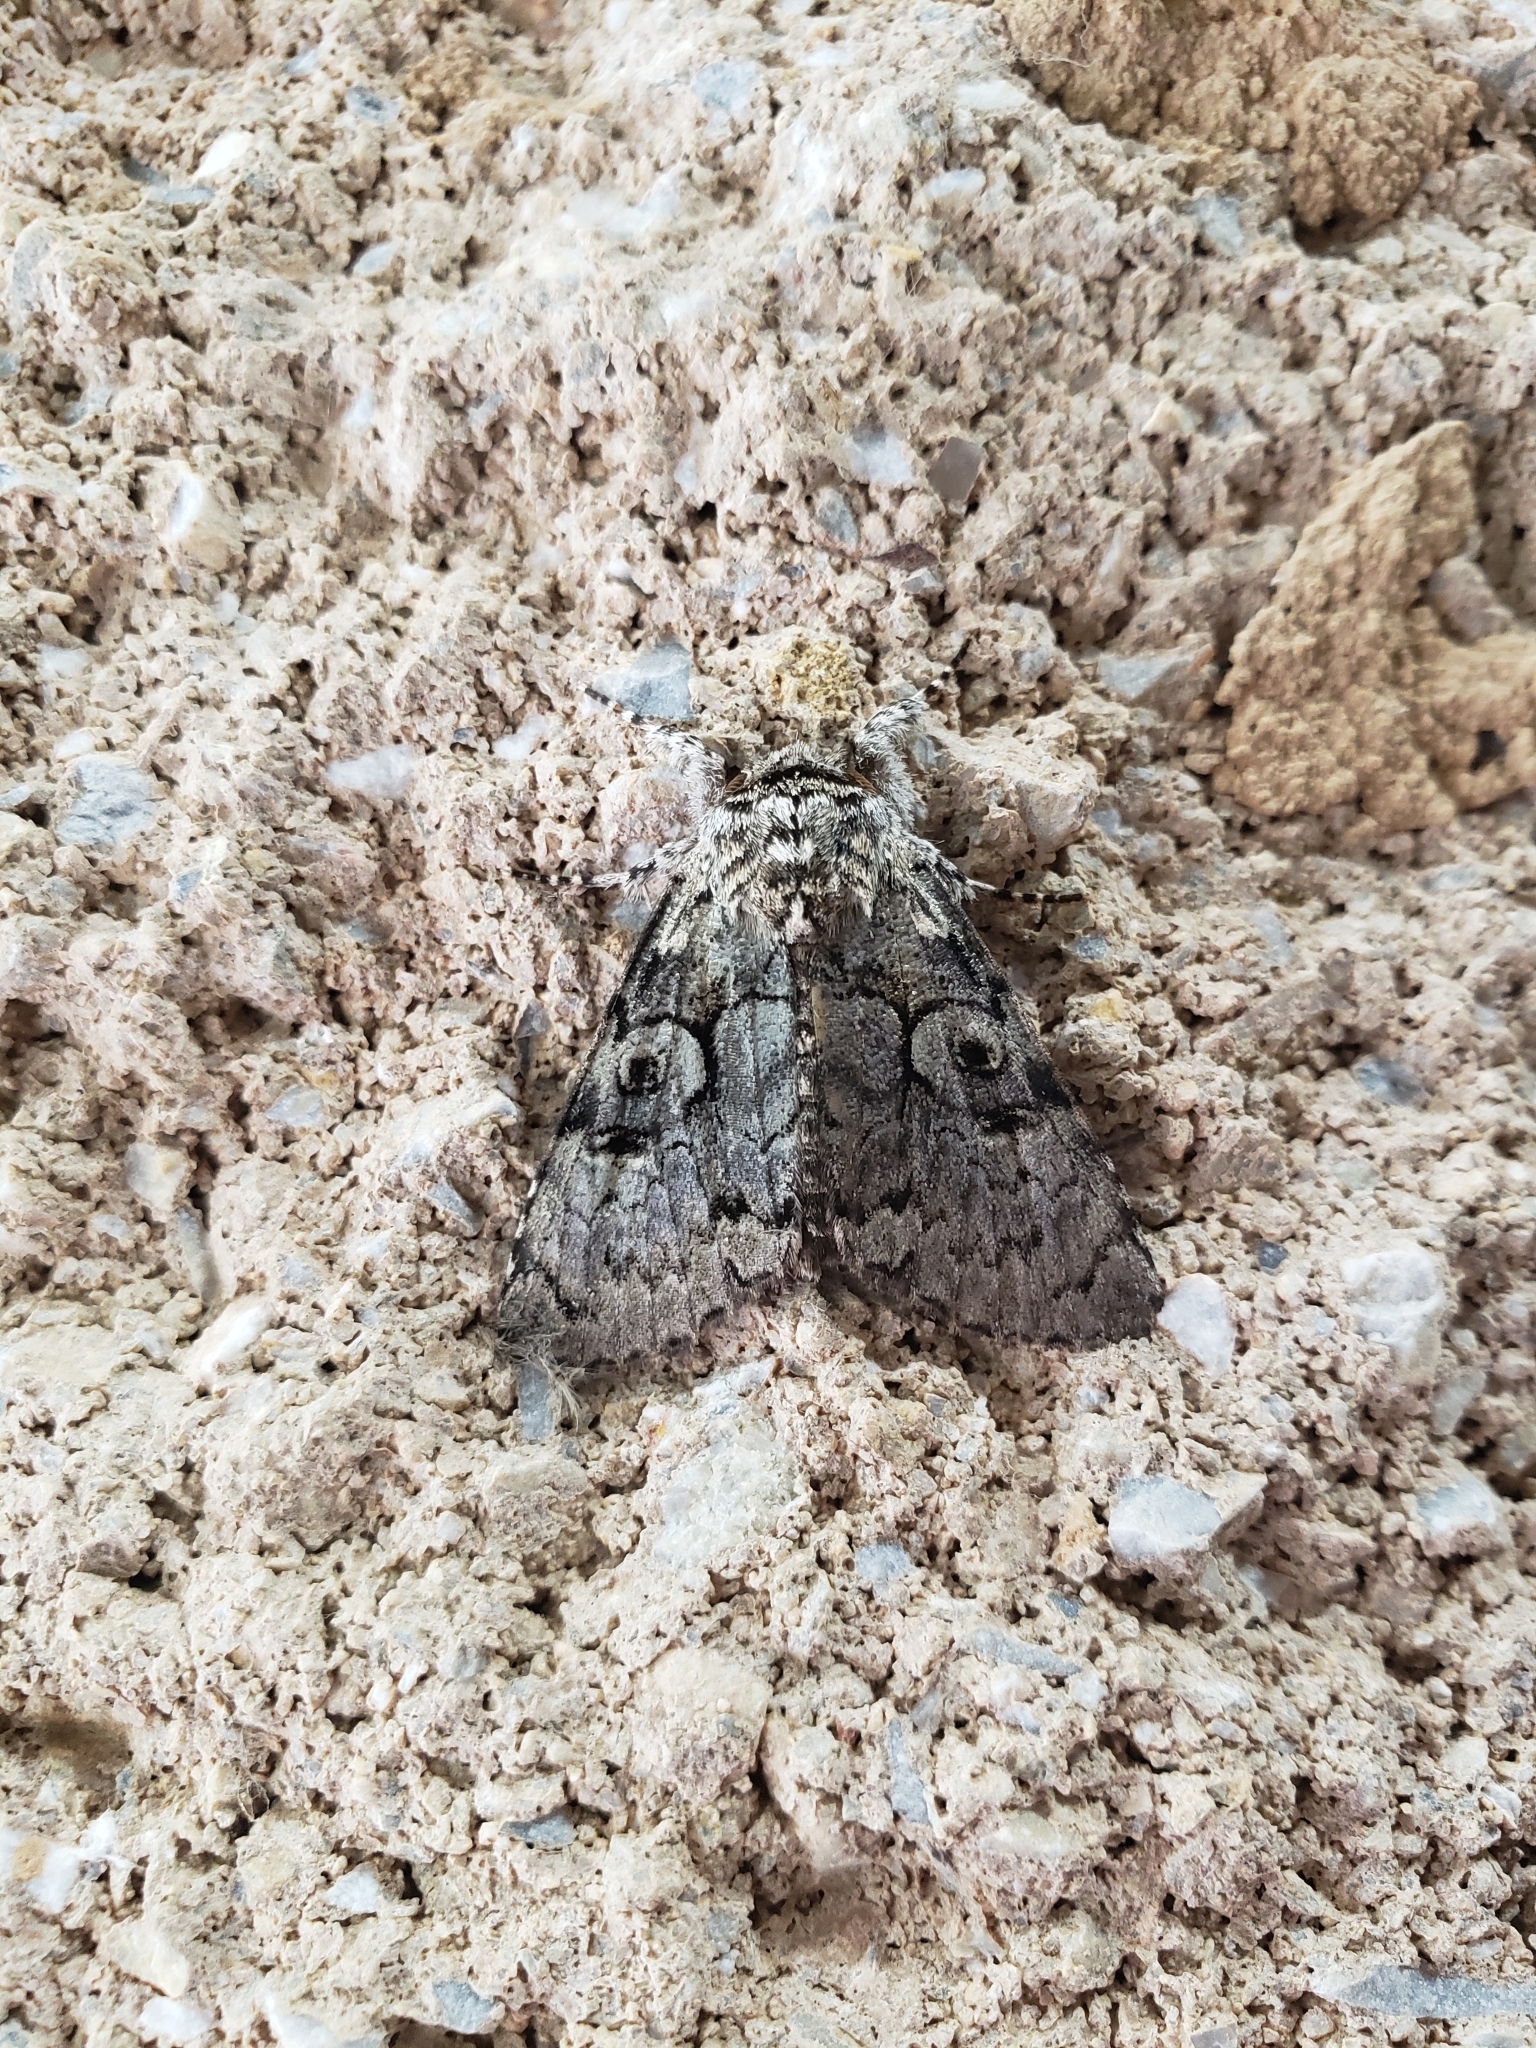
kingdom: Animalia
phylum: Arthropoda
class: Insecta
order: Lepidoptera
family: Noctuidae
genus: Charadra
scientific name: Charadra deridens
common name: Marbled tuffet
